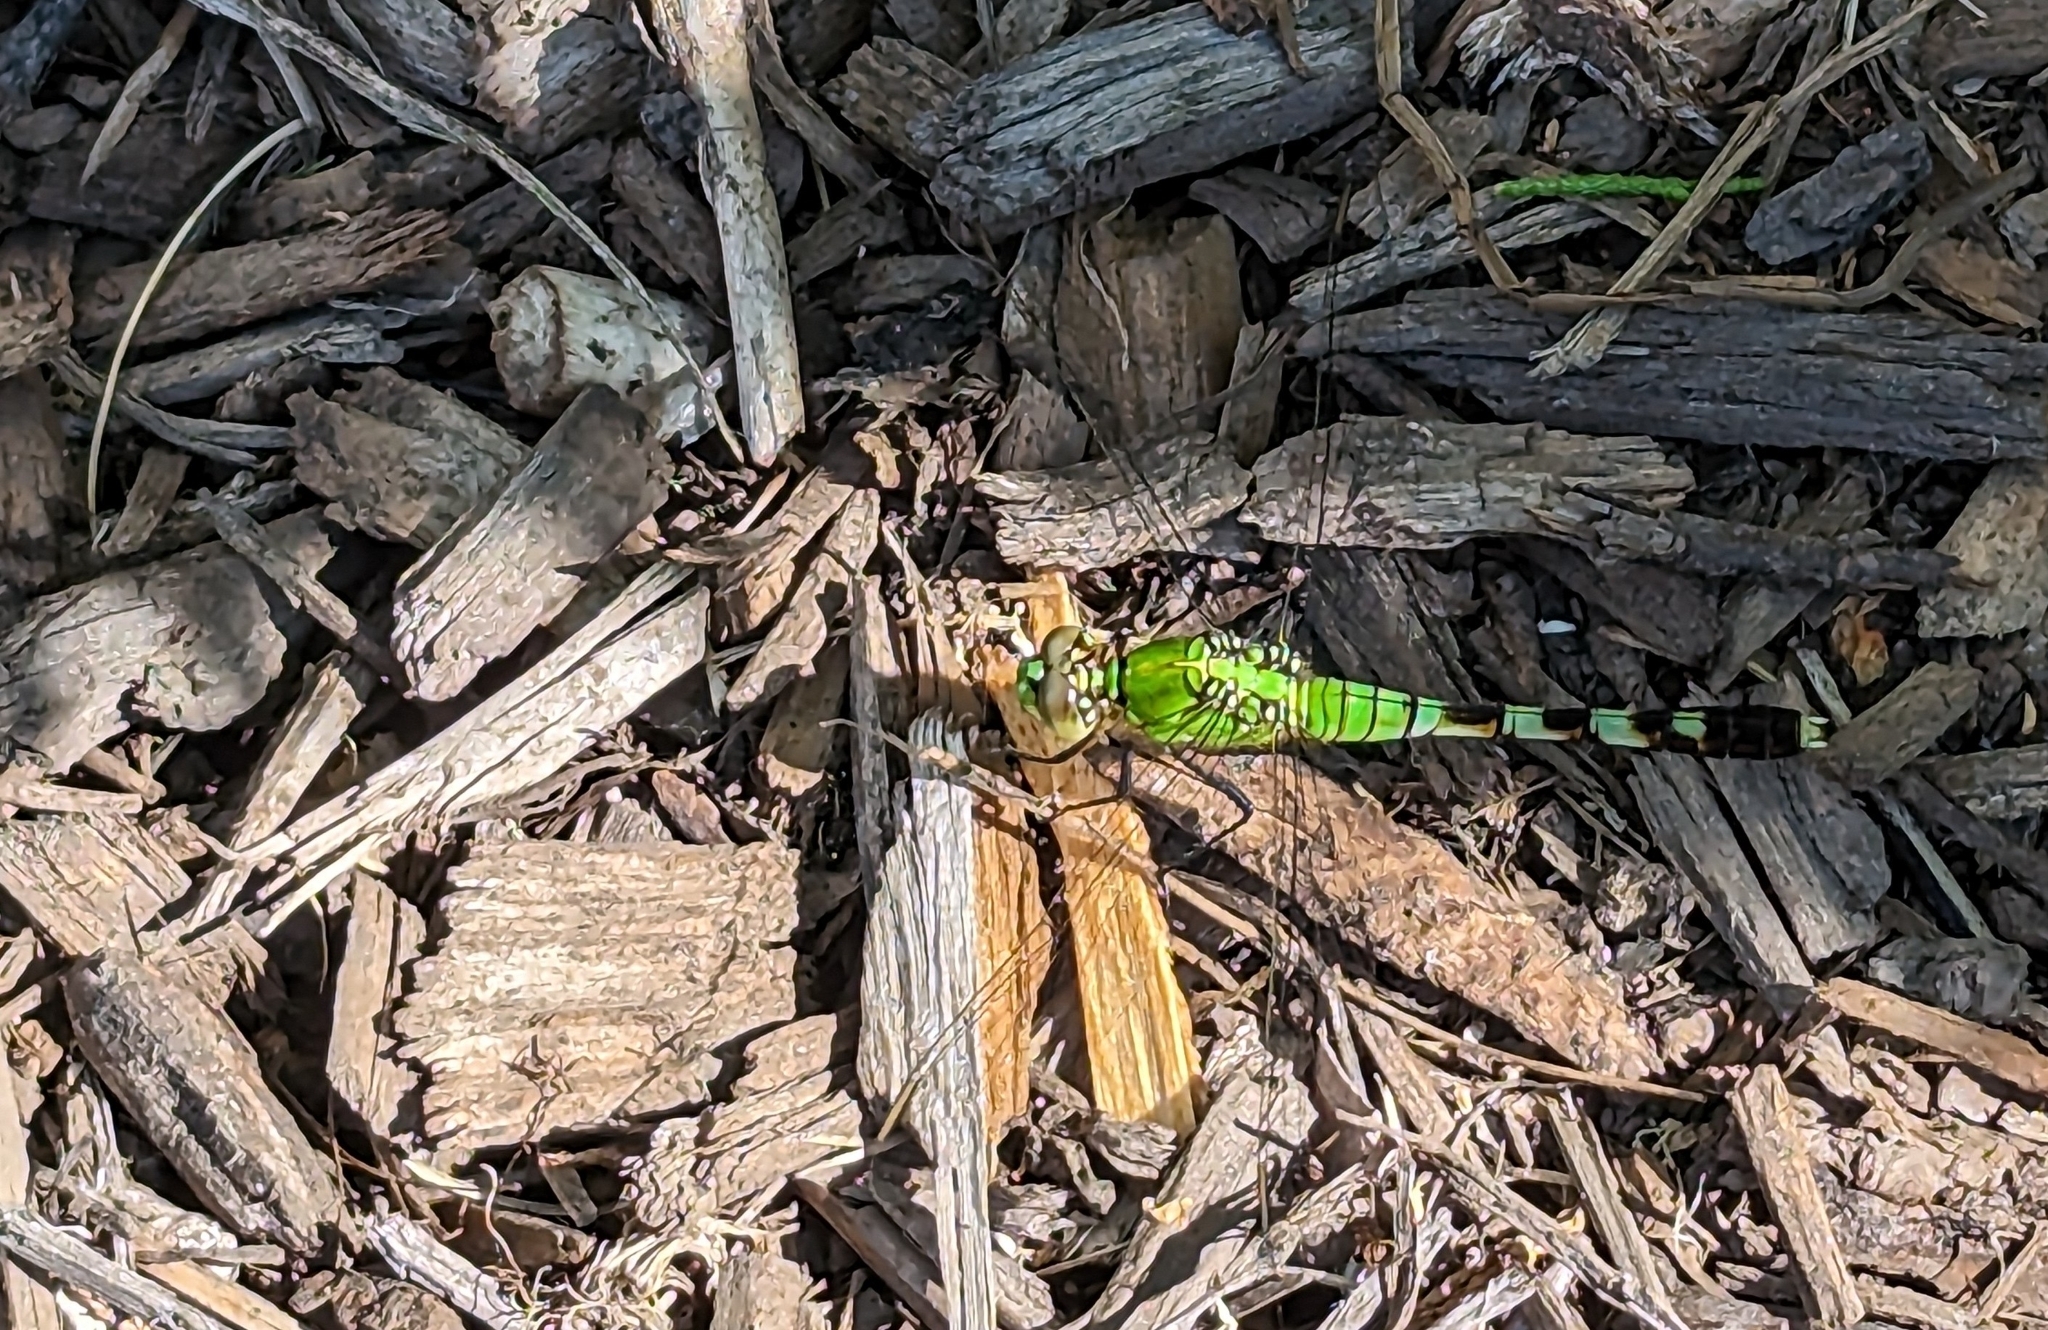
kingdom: Animalia
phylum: Arthropoda
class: Insecta
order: Odonata
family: Libellulidae
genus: Erythemis
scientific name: Erythemis simplicicollis
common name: Eastern pondhawk
